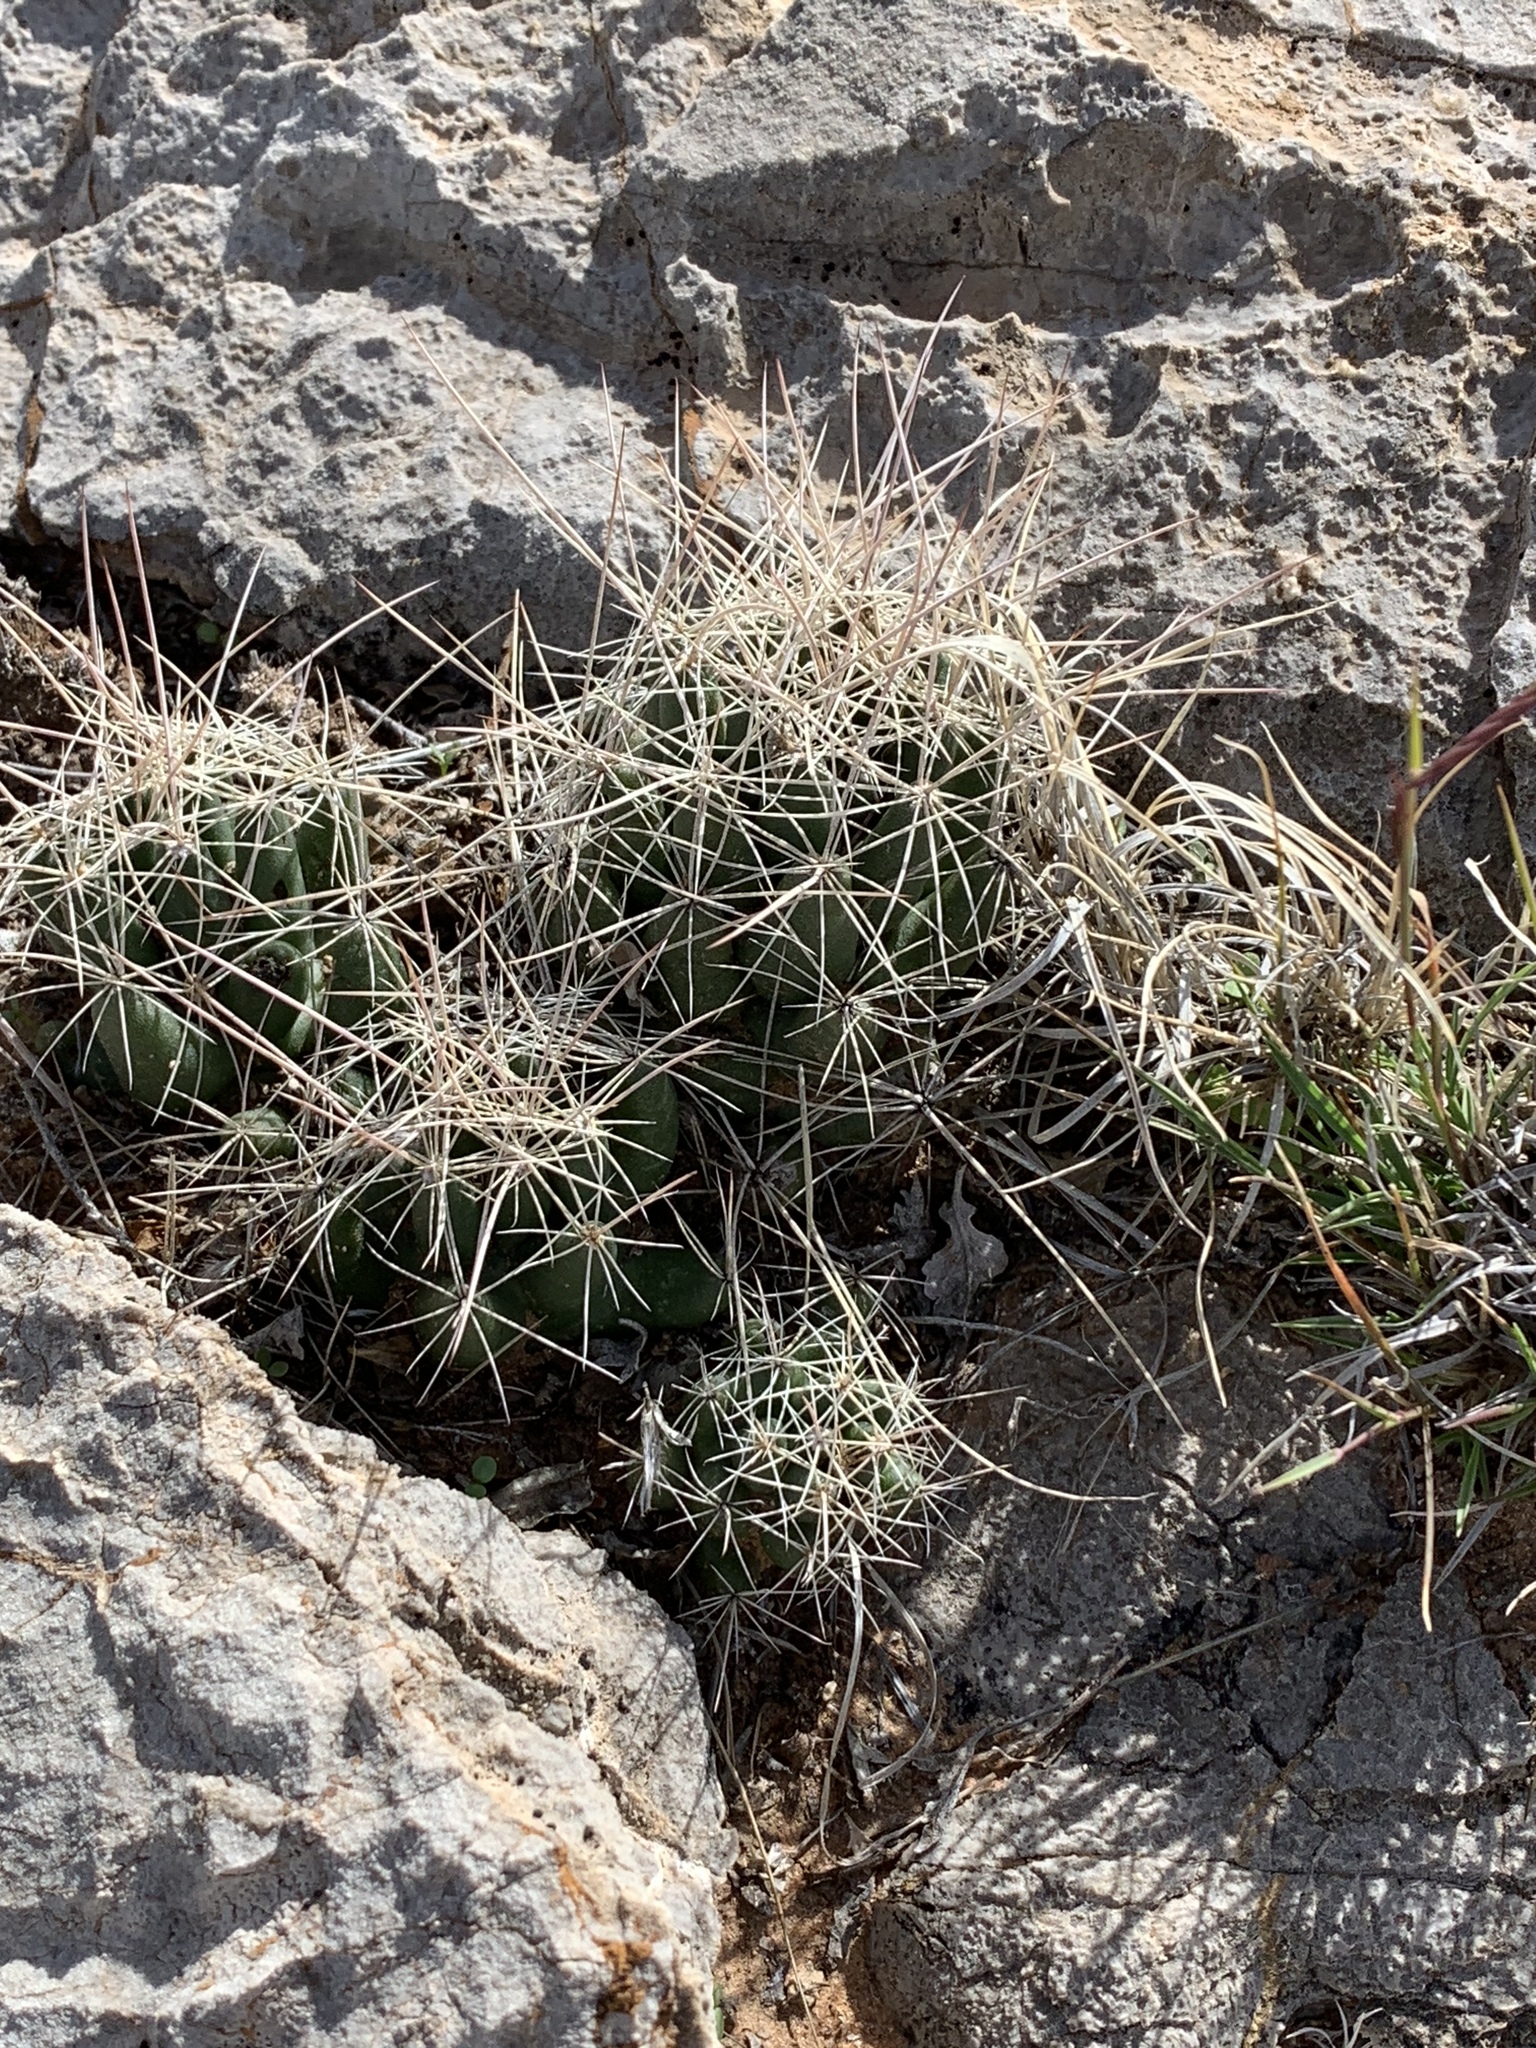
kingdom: Plantae
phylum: Tracheophyta
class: Magnoliopsida
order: Caryophyllales
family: Cactaceae
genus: Coryphantha
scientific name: Coryphantha macromeris
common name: Nipple beehive cactus
